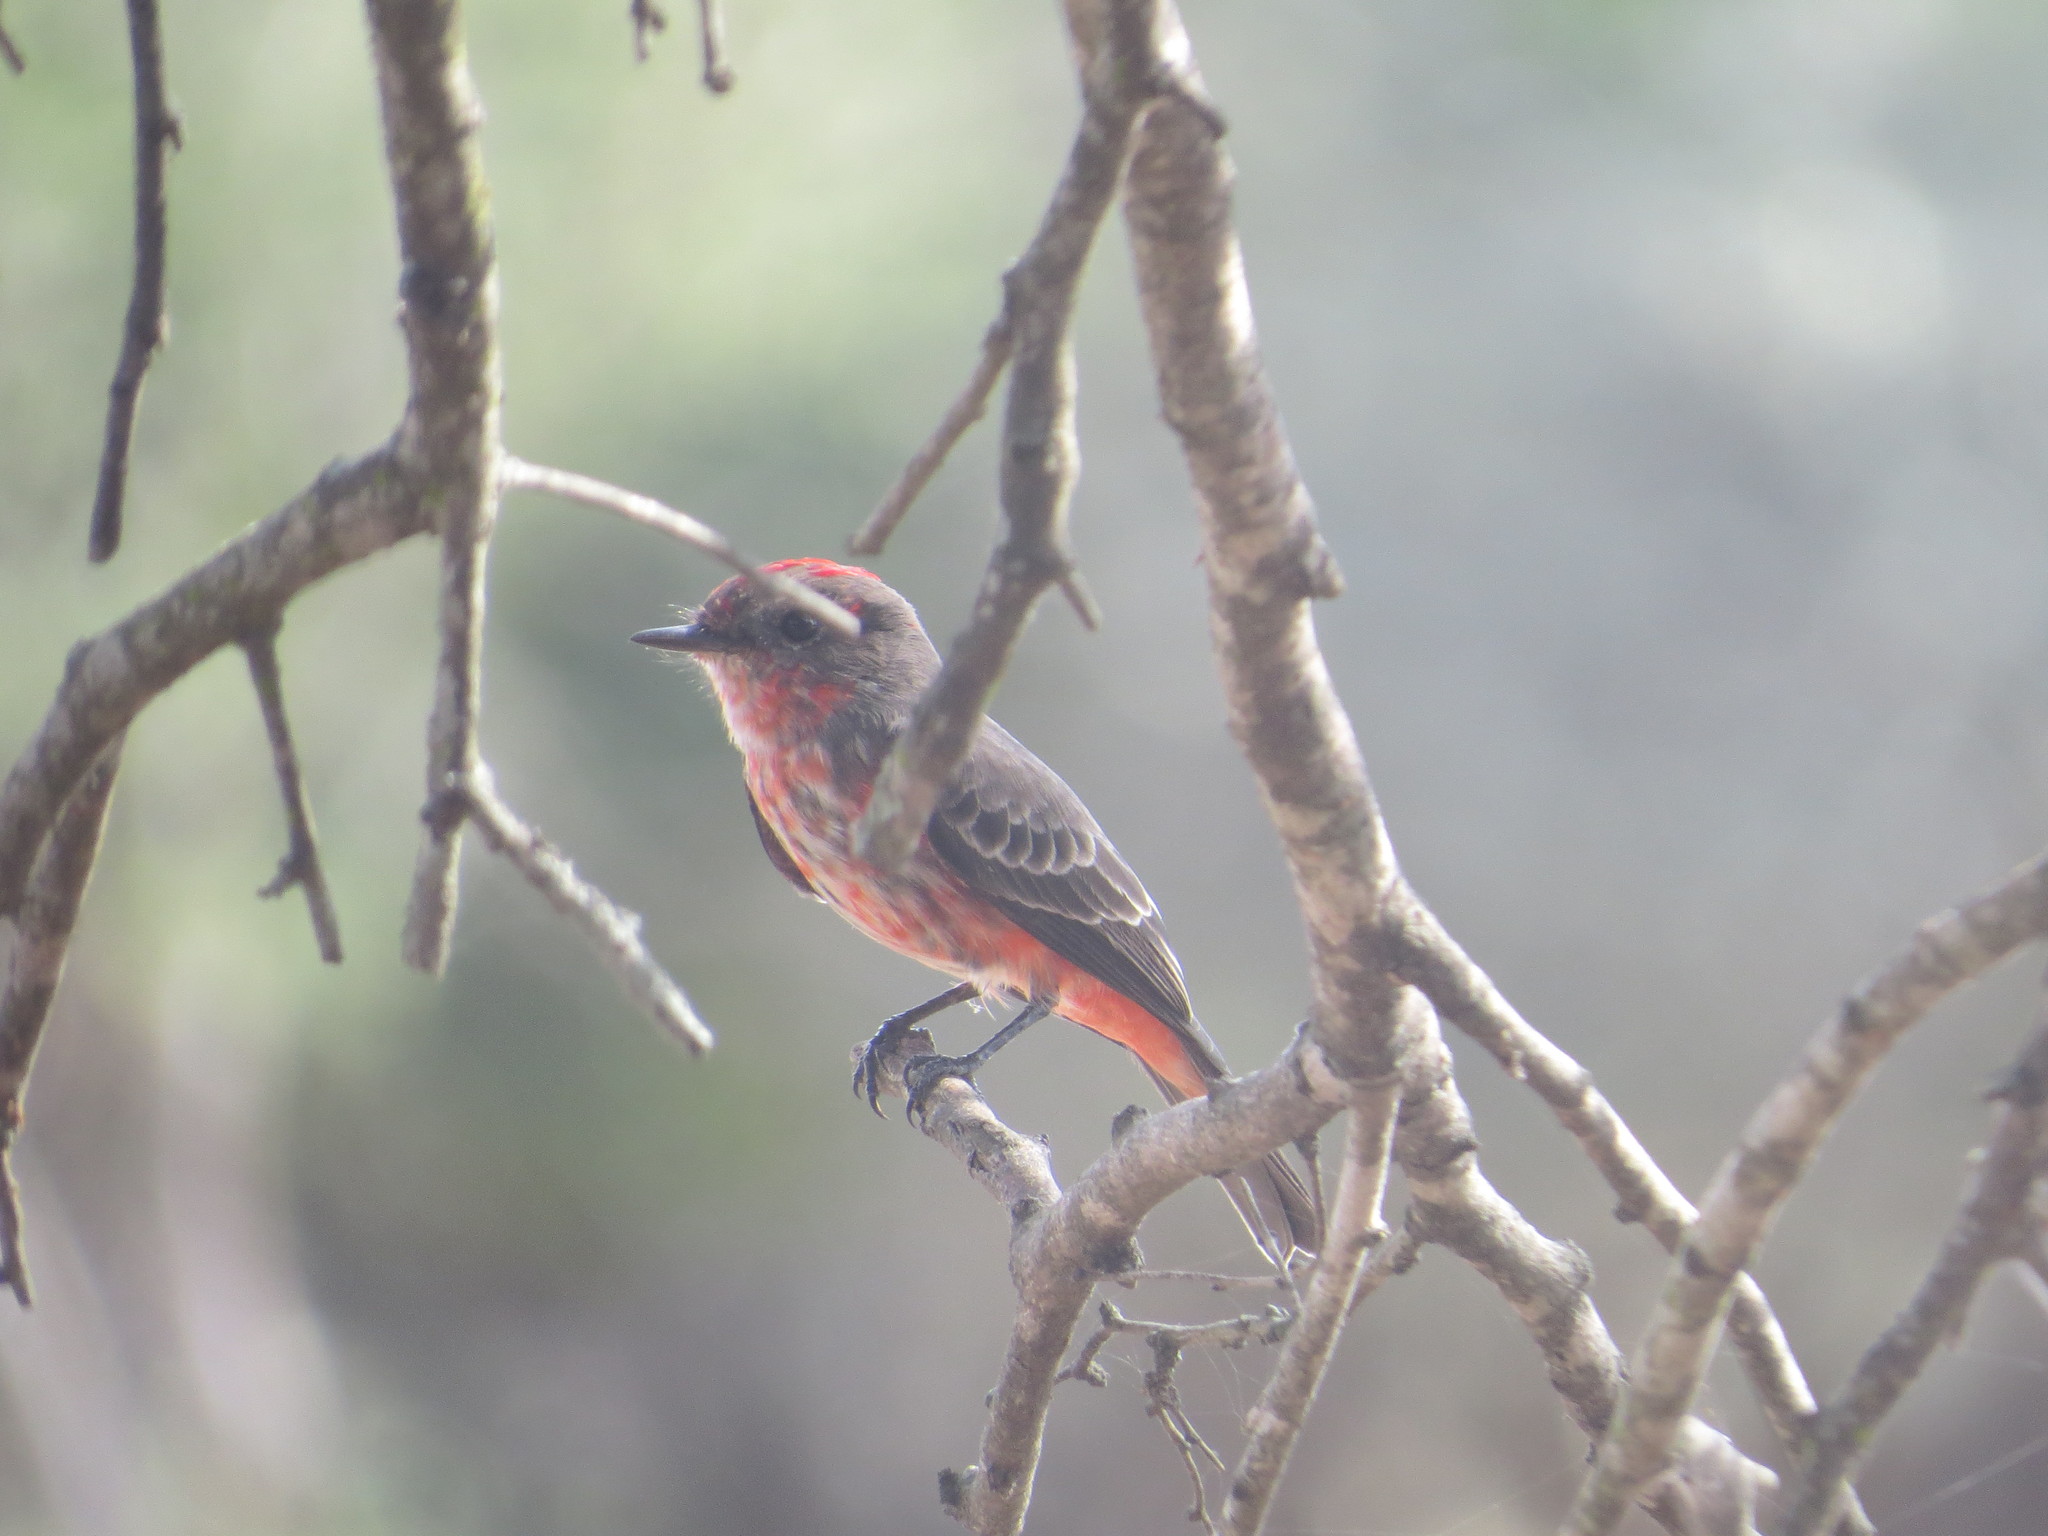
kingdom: Animalia
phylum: Chordata
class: Aves
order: Passeriformes
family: Tyrannidae
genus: Pyrocephalus
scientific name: Pyrocephalus rubinus
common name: Vermilion flycatcher
